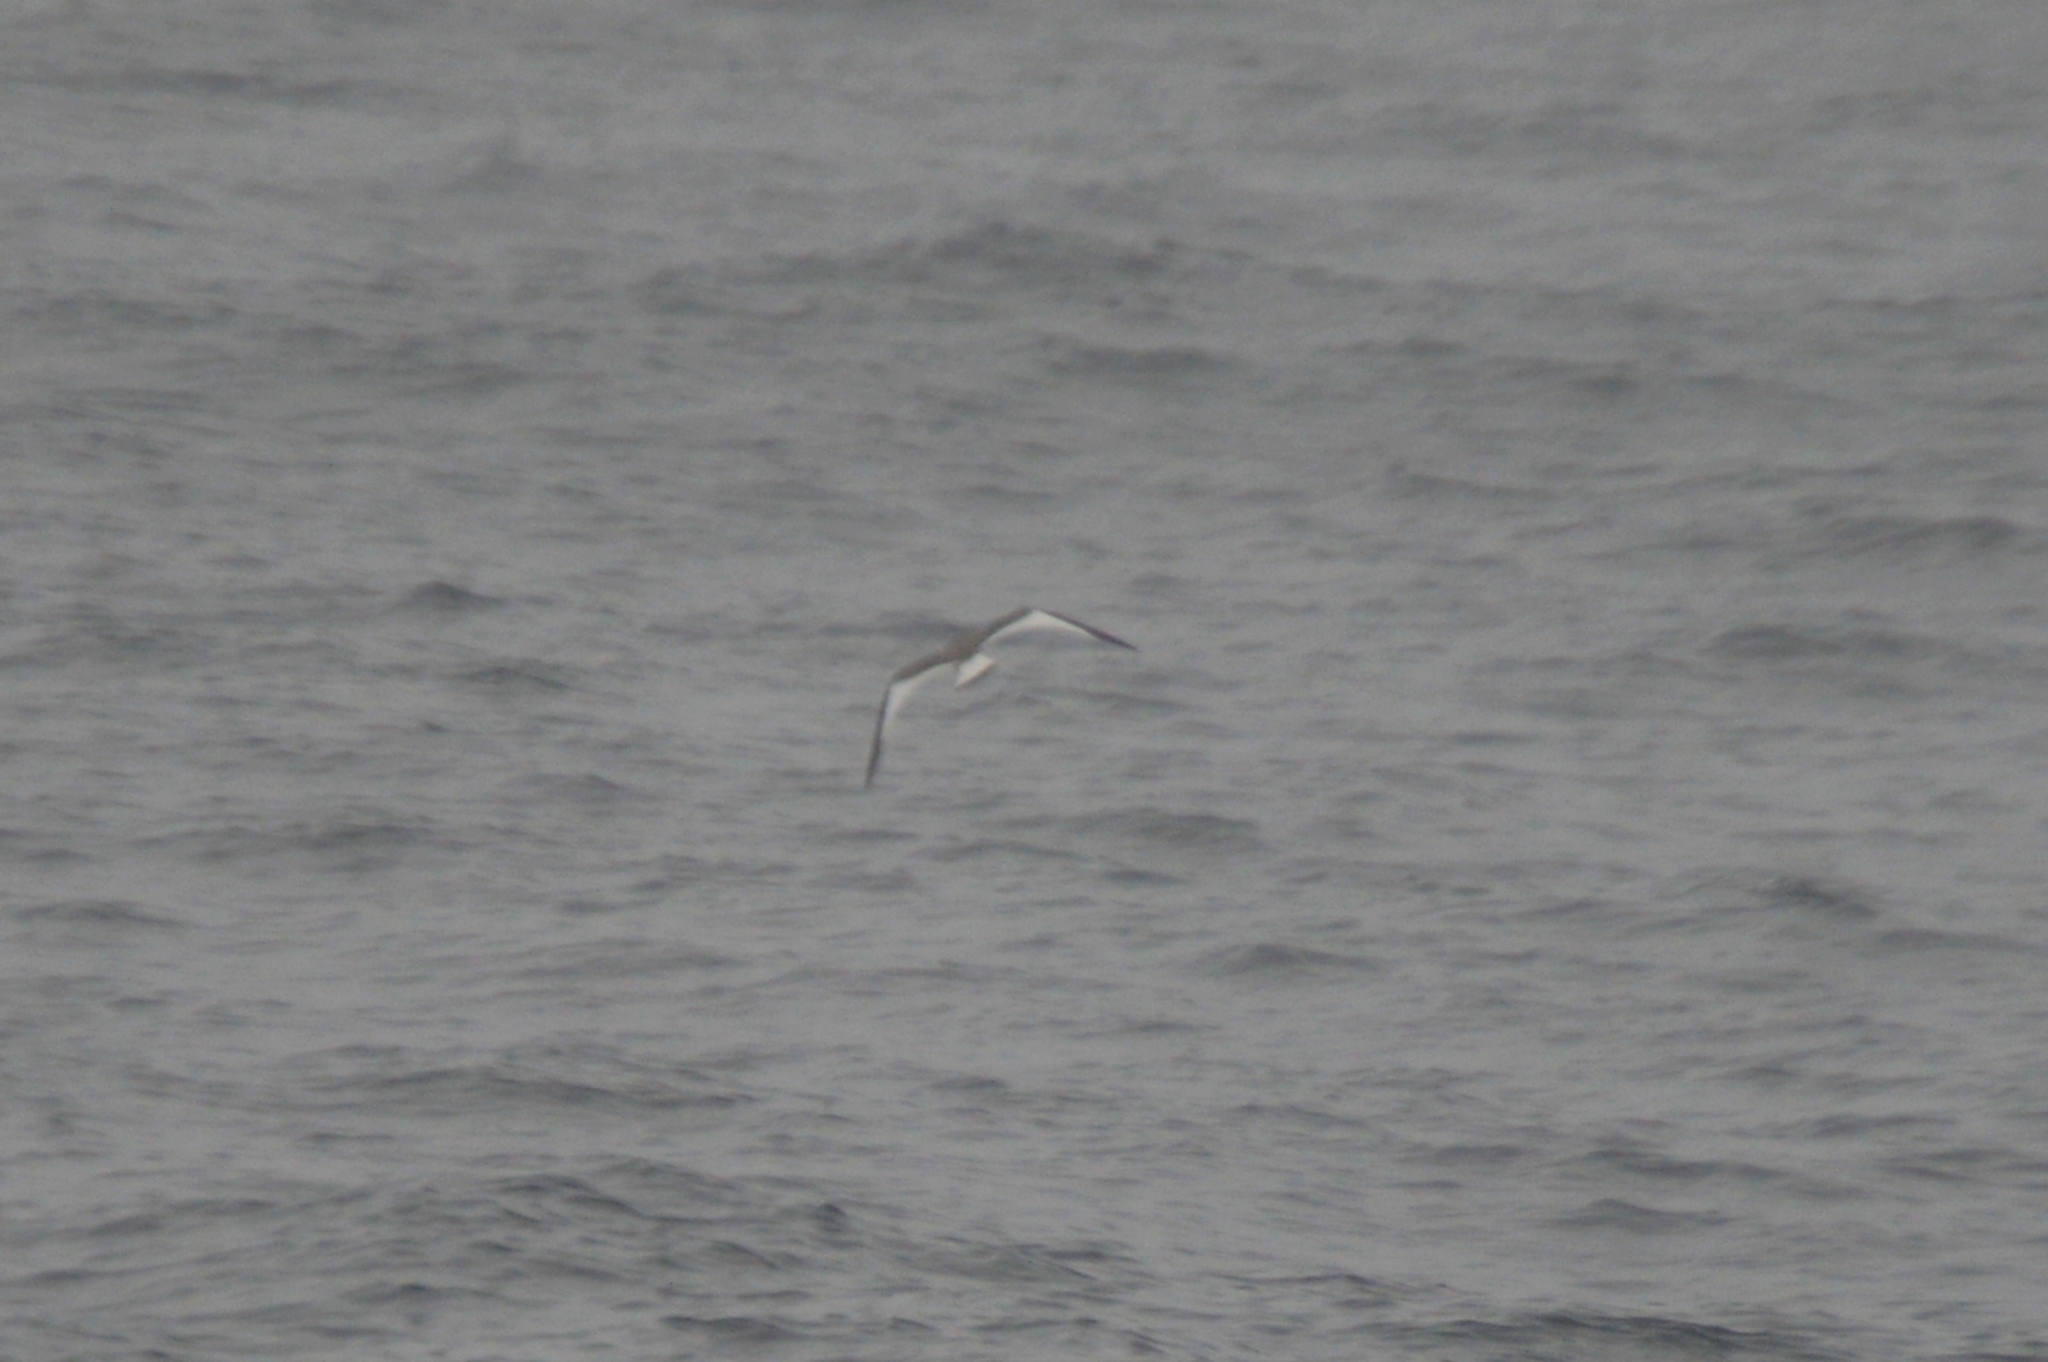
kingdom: Animalia
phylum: Chordata
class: Aves
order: Charadriiformes
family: Laridae
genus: Xema
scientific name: Xema sabini
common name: Sabine's gull
